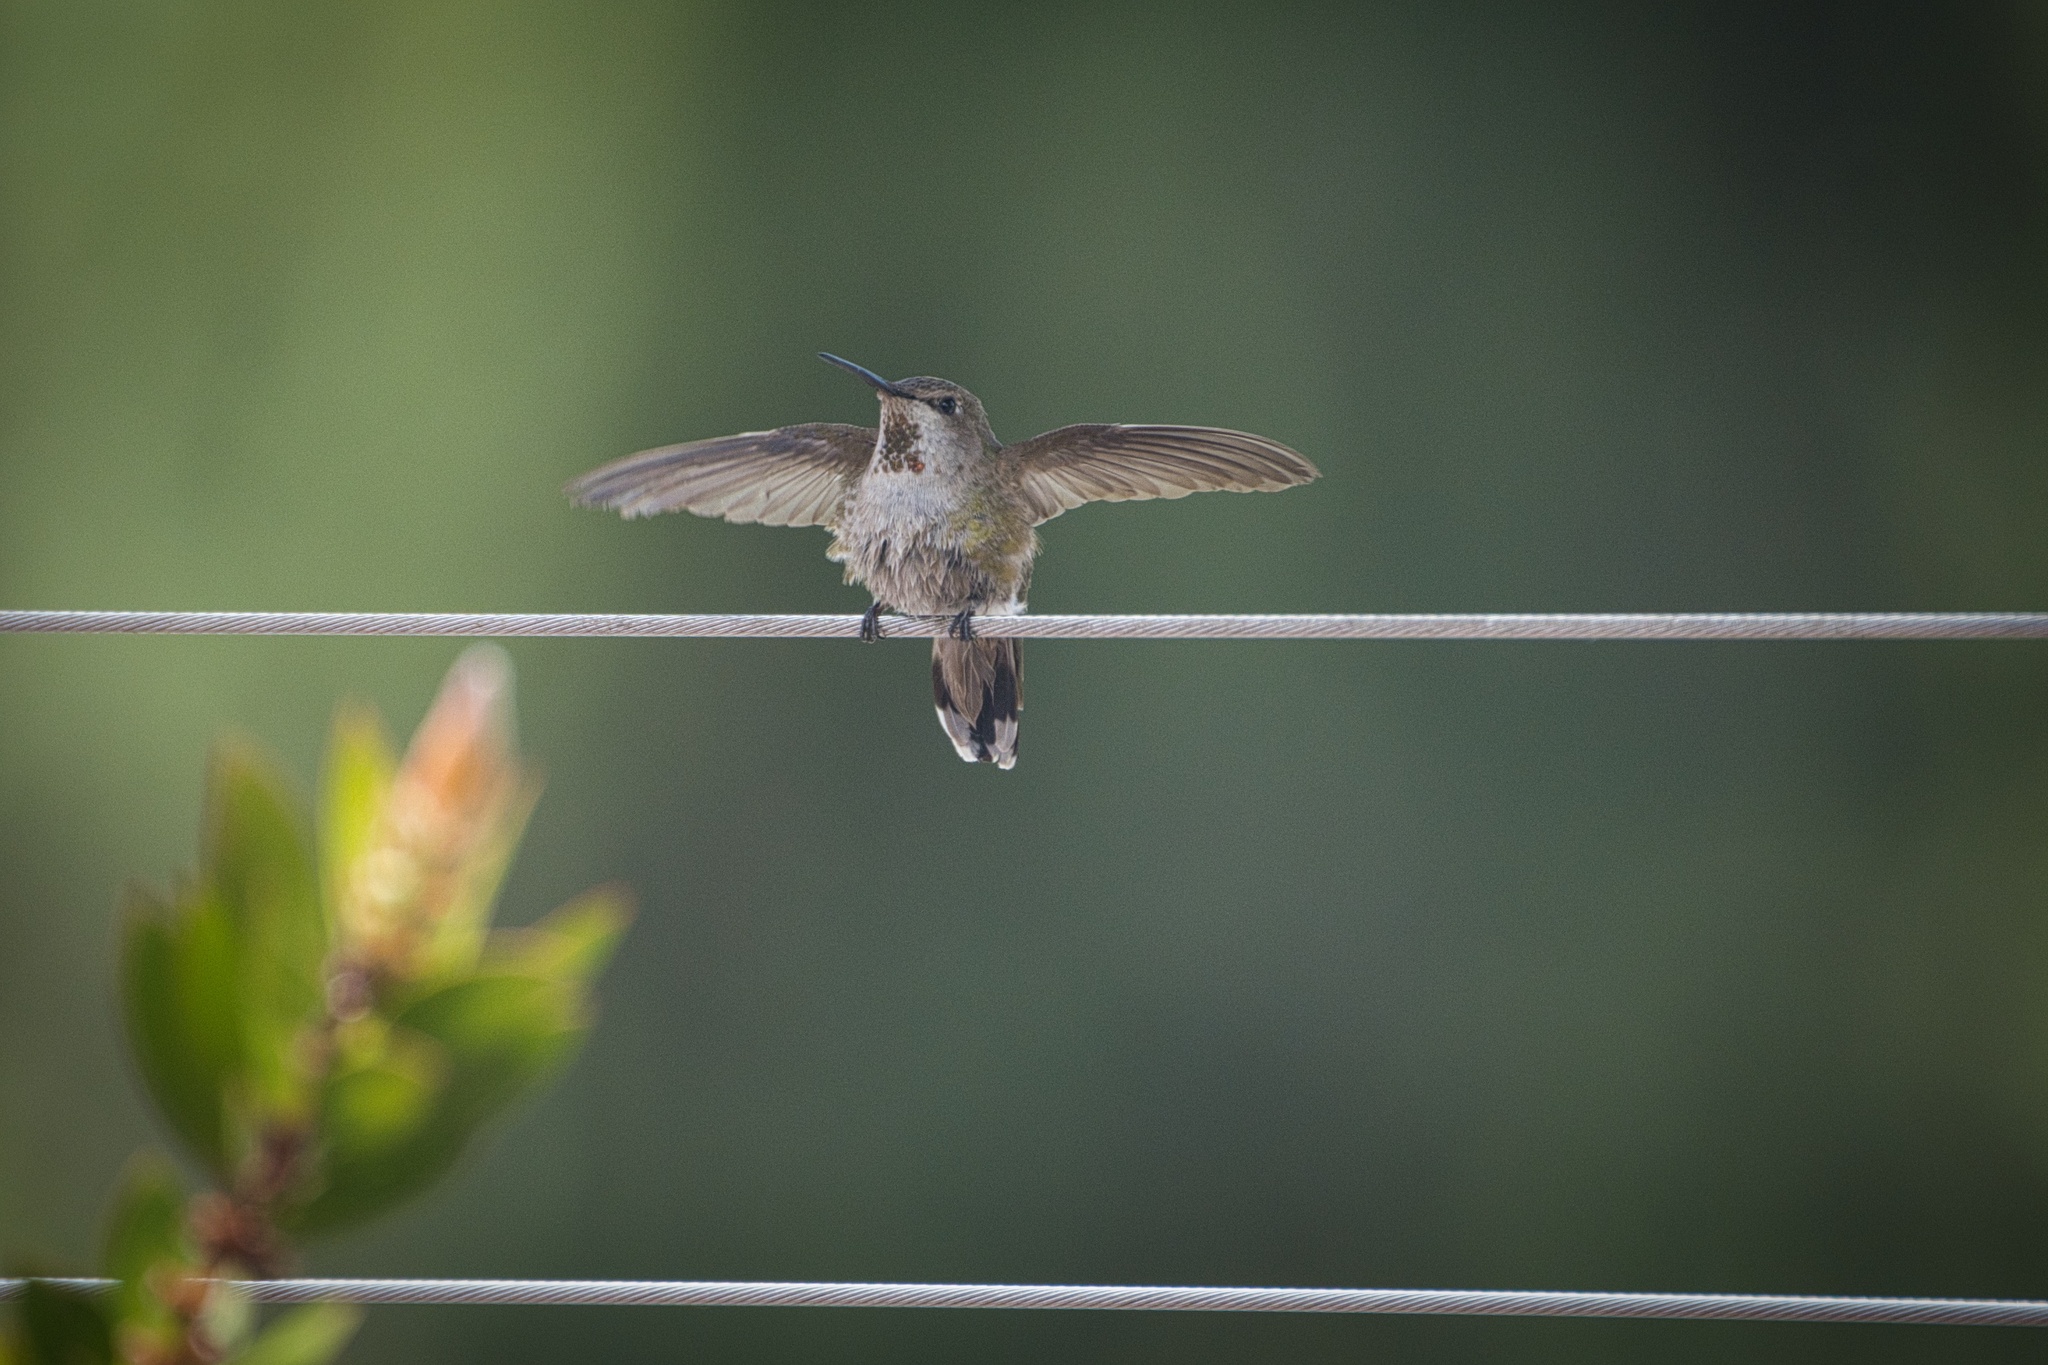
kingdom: Animalia
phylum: Chordata
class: Aves
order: Apodiformes
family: Trochilidae
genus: Calypte
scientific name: Calypte anna
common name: Anna's hummingbird
